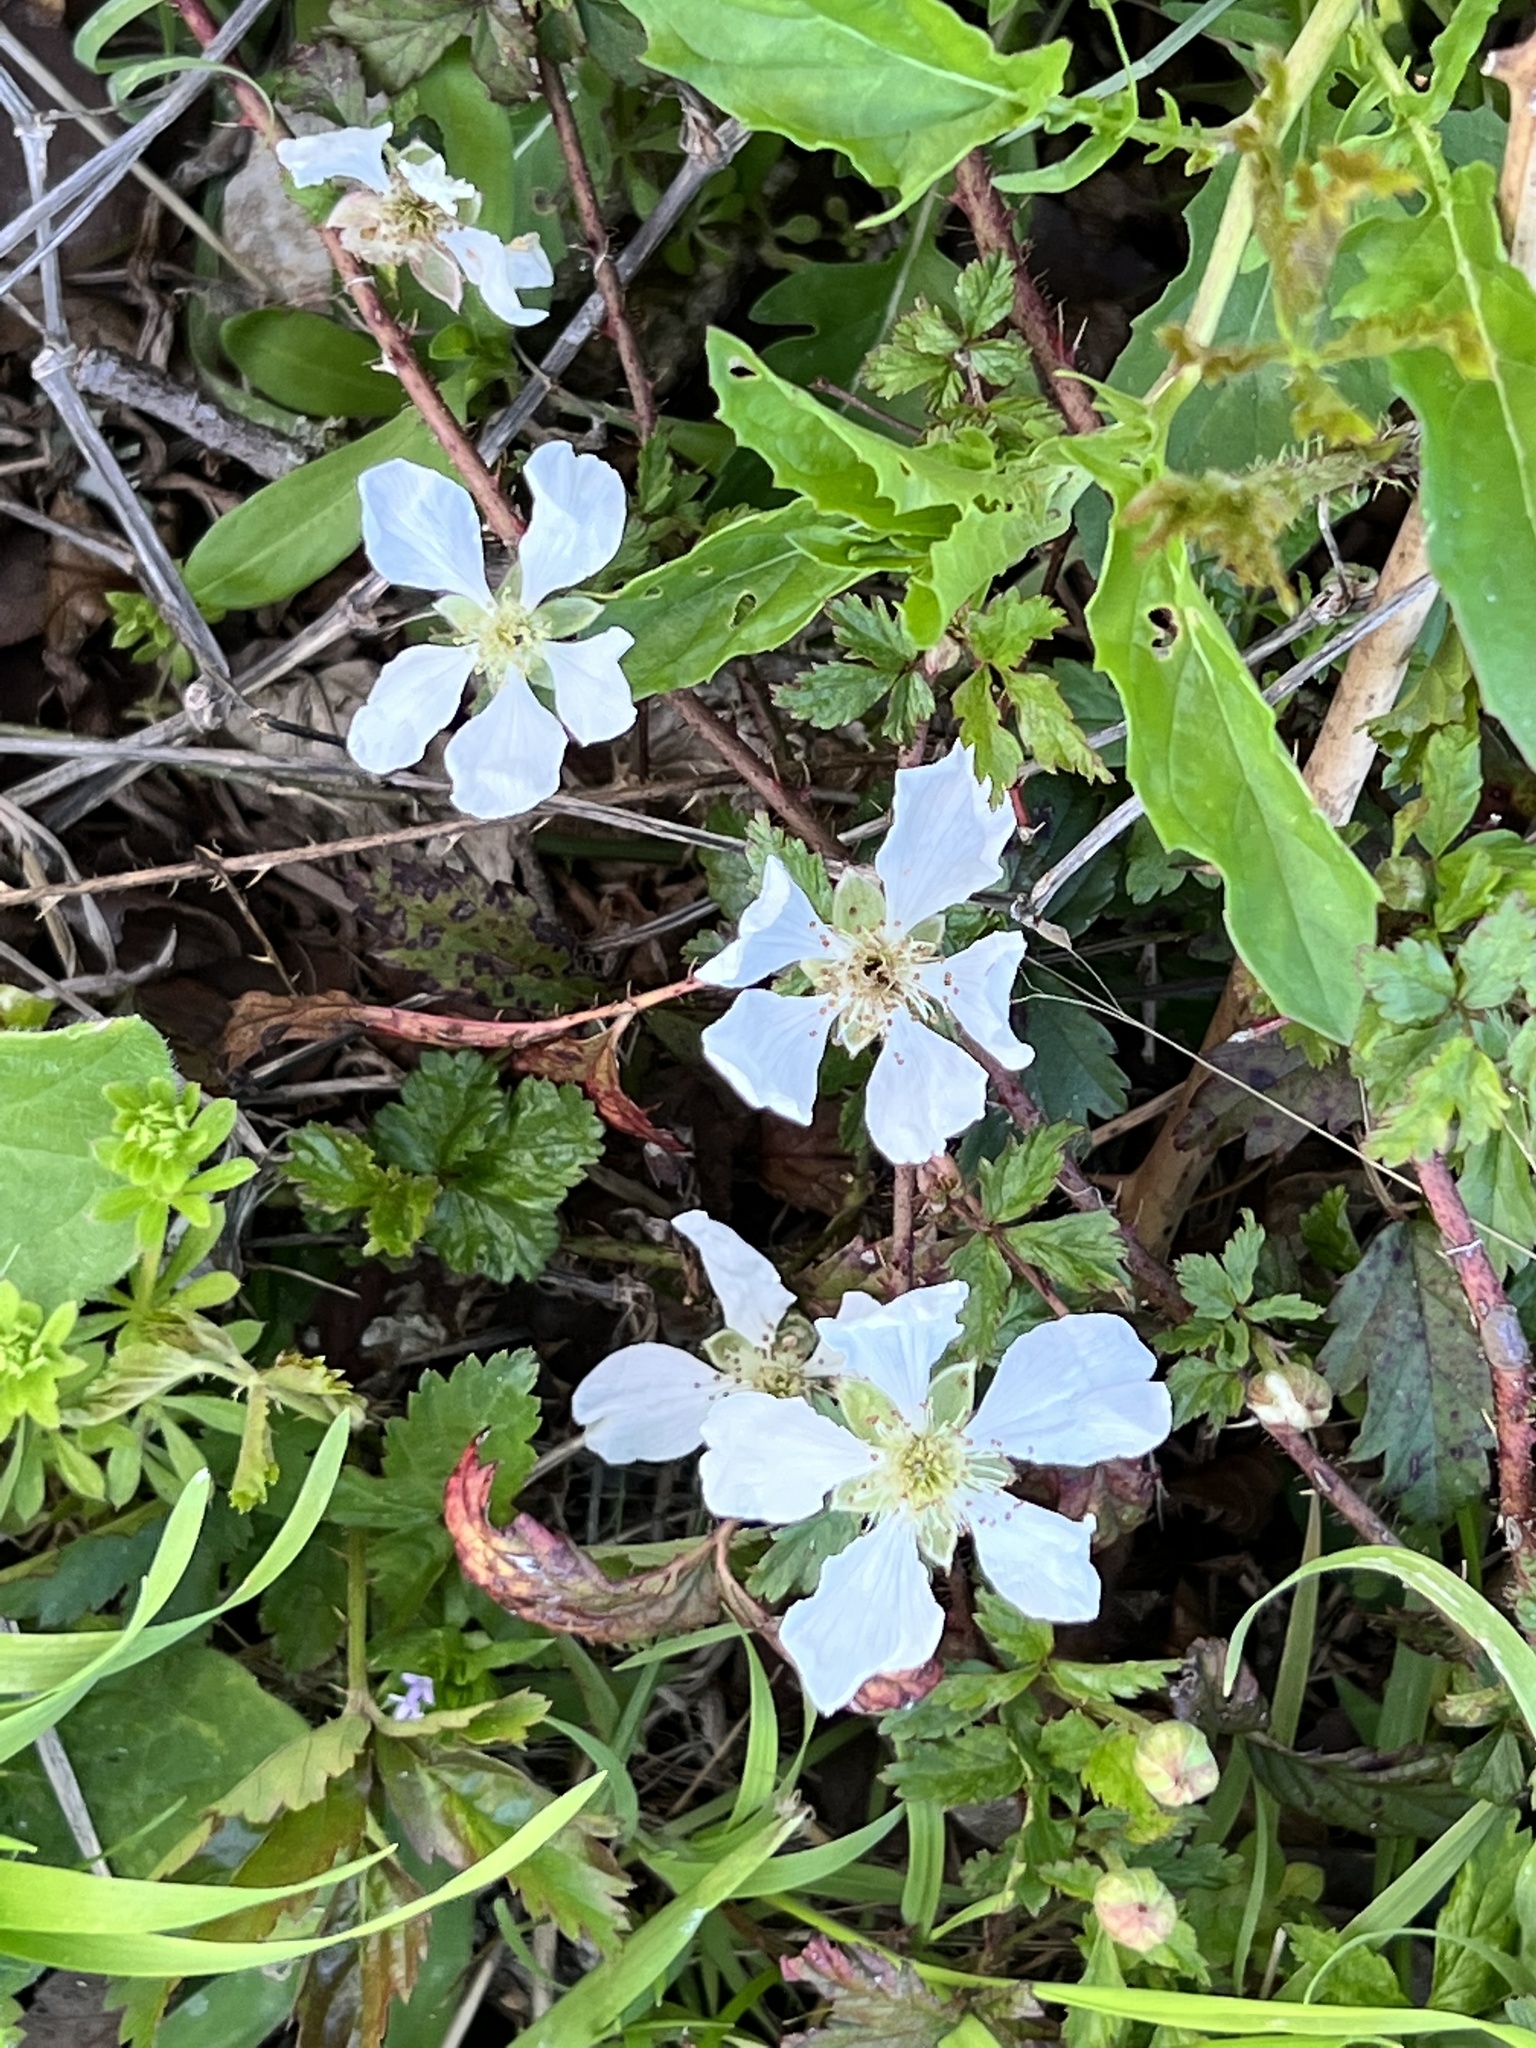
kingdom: Plantae
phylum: Tracheophyta
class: Magnoliopsida
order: Rosales
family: Rosaceae
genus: Rubus
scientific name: Rubus trivialis
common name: Southern dewberry
